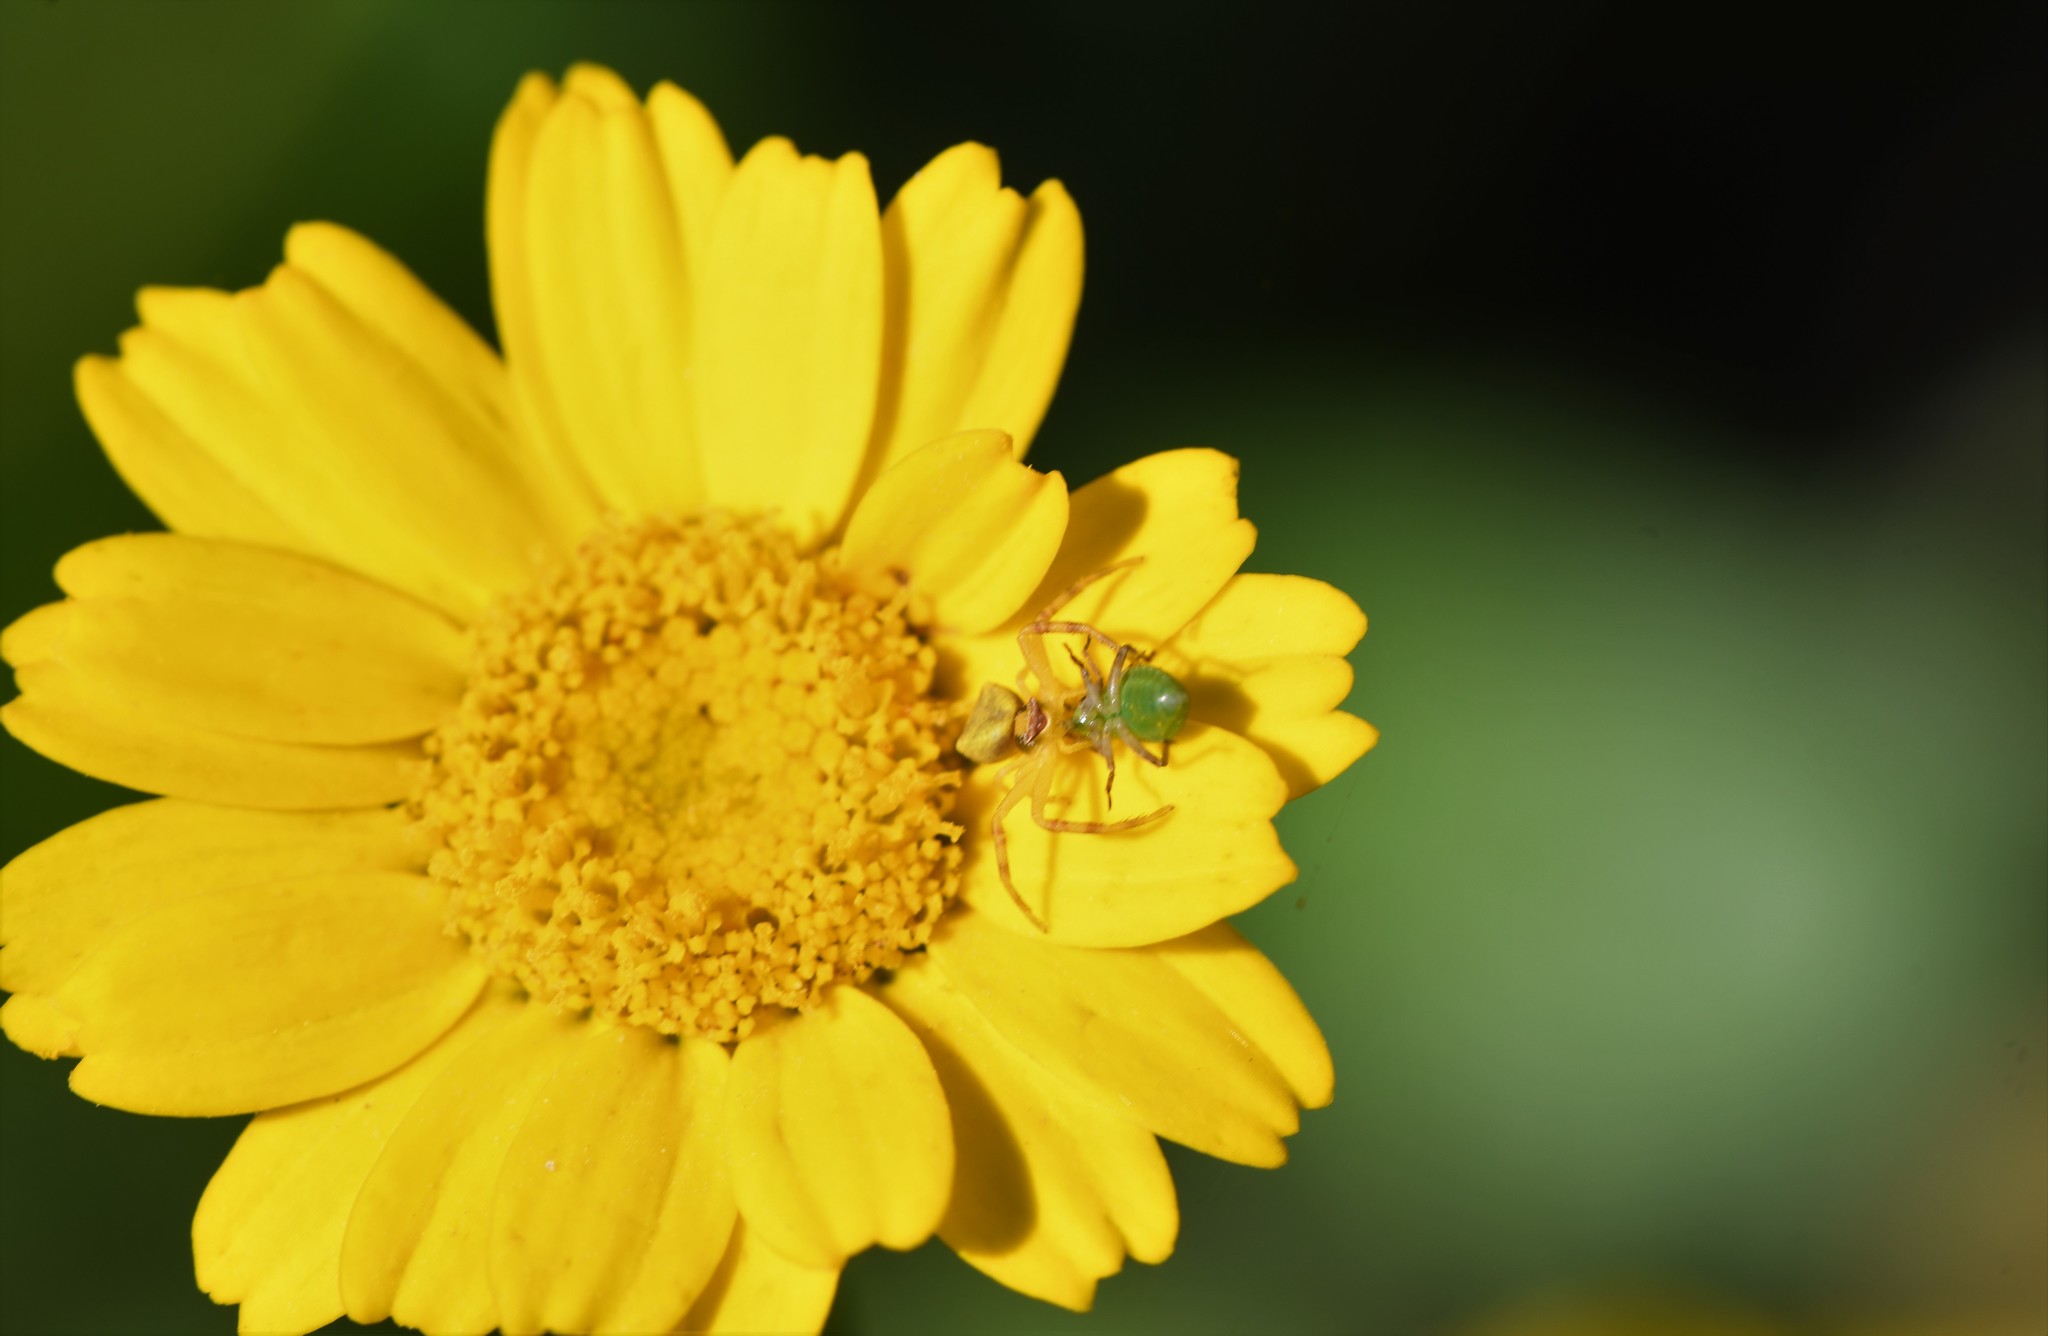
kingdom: Animalia
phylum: Arthropoda
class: Arachnida
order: Araneae
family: Thomisidae
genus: Thomisus
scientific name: Thomisus onustus
